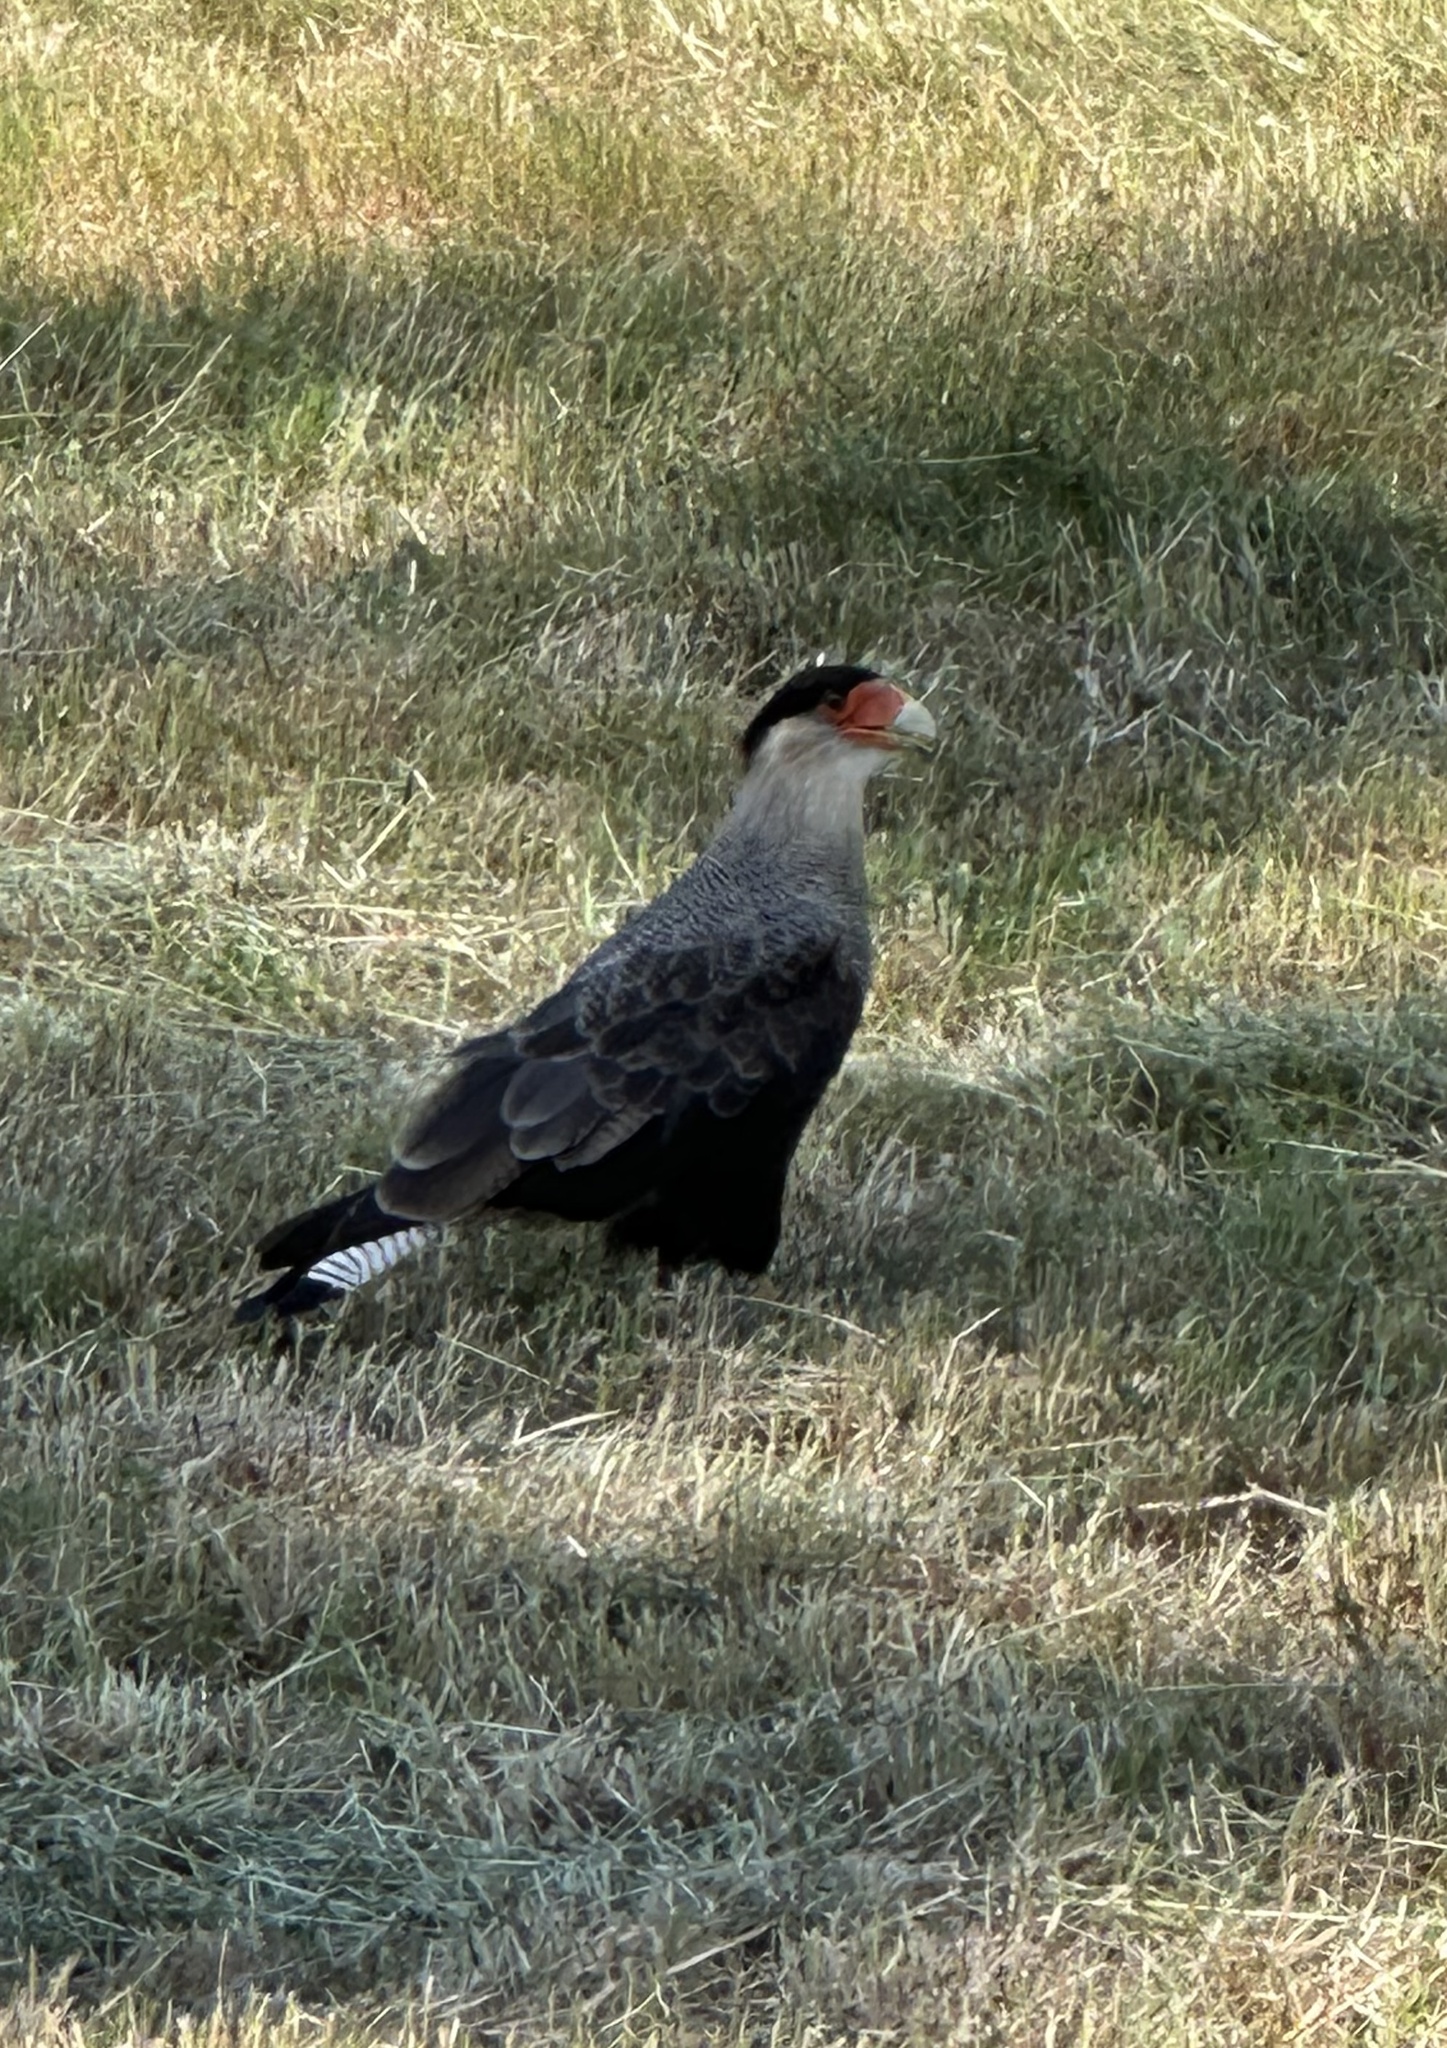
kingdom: Animalia
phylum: Chordata
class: Aves
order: Falconiformes
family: Falconidae
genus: Caracara
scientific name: Caracara plancus
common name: Southern caracara
